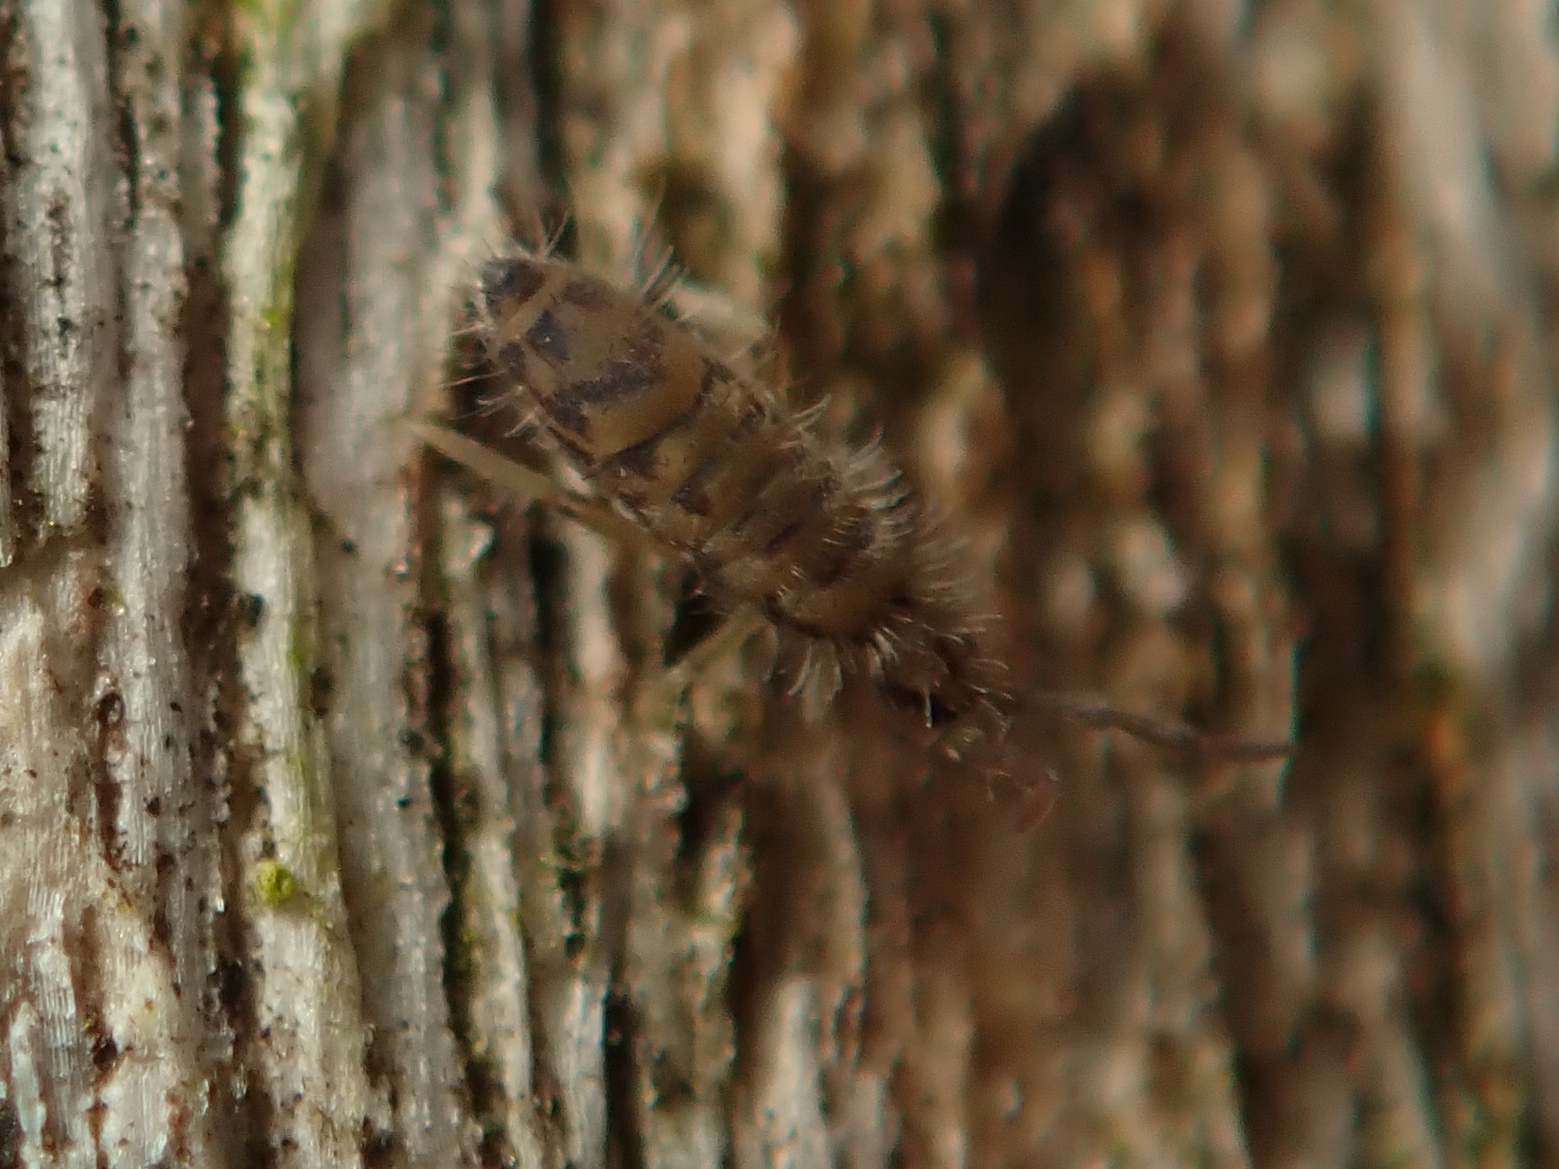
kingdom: Animalia
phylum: Arthropoda
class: Collembola
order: Entomobryomorpha
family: Entomobryidae
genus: Entomobrya
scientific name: Entomobrya multifasciata
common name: Springtail
